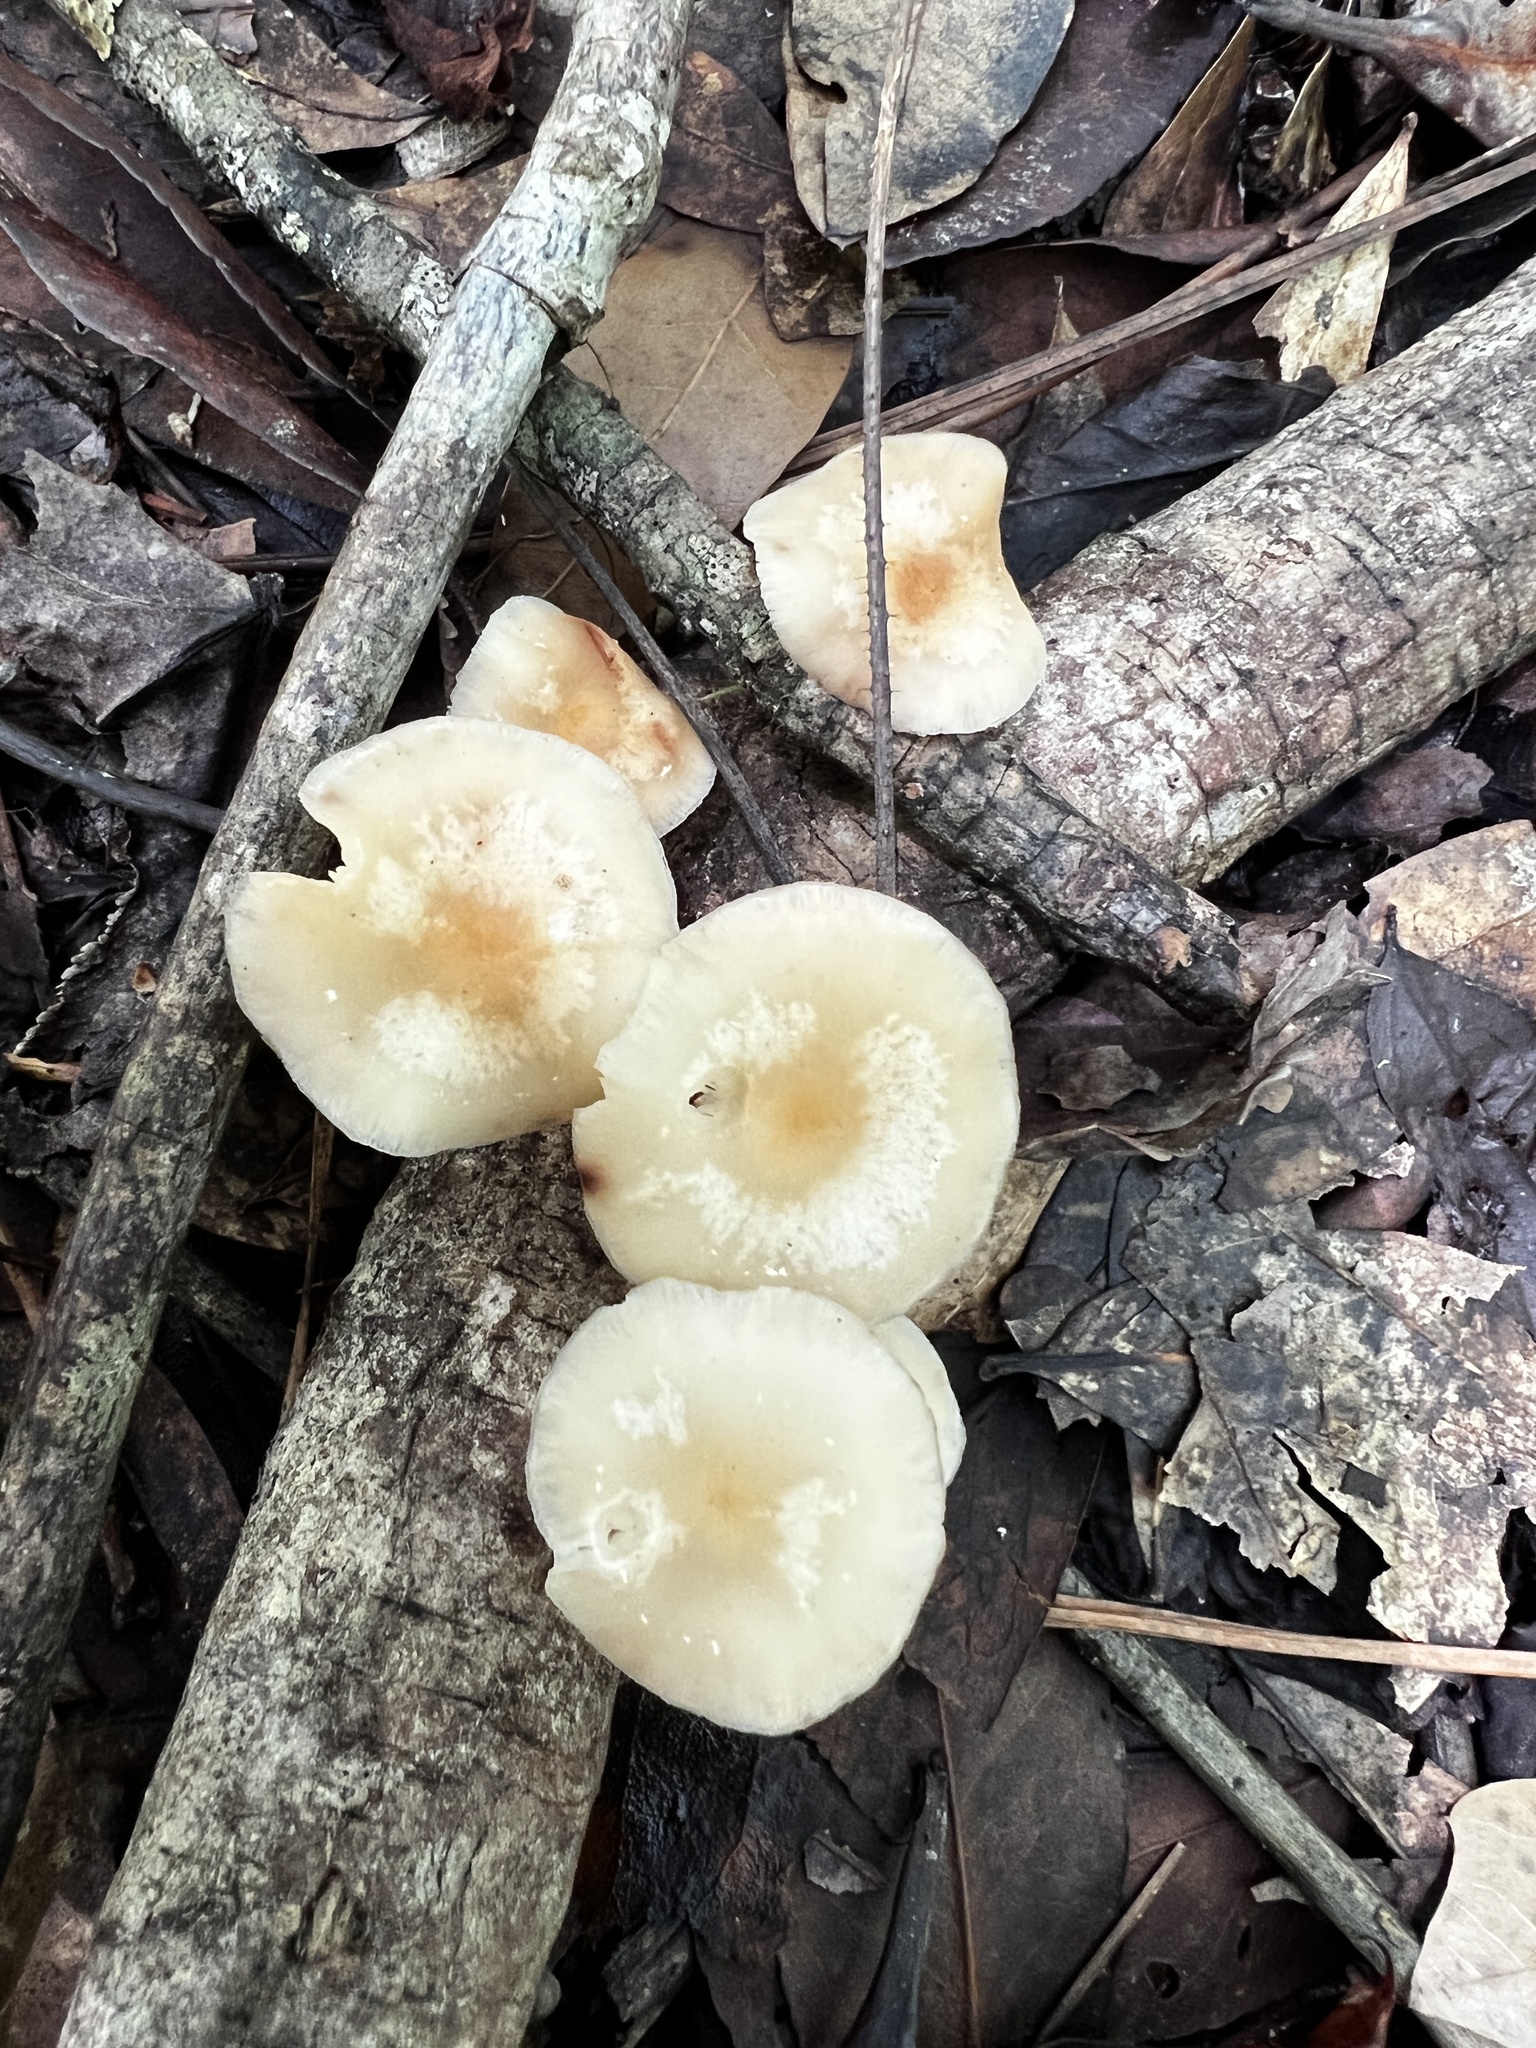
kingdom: Fungi
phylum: Basidiomycota
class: Agaricomycetes
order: Agaricales
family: Omphalotaceae
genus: Lentinula
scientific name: Lentinula raphanica
